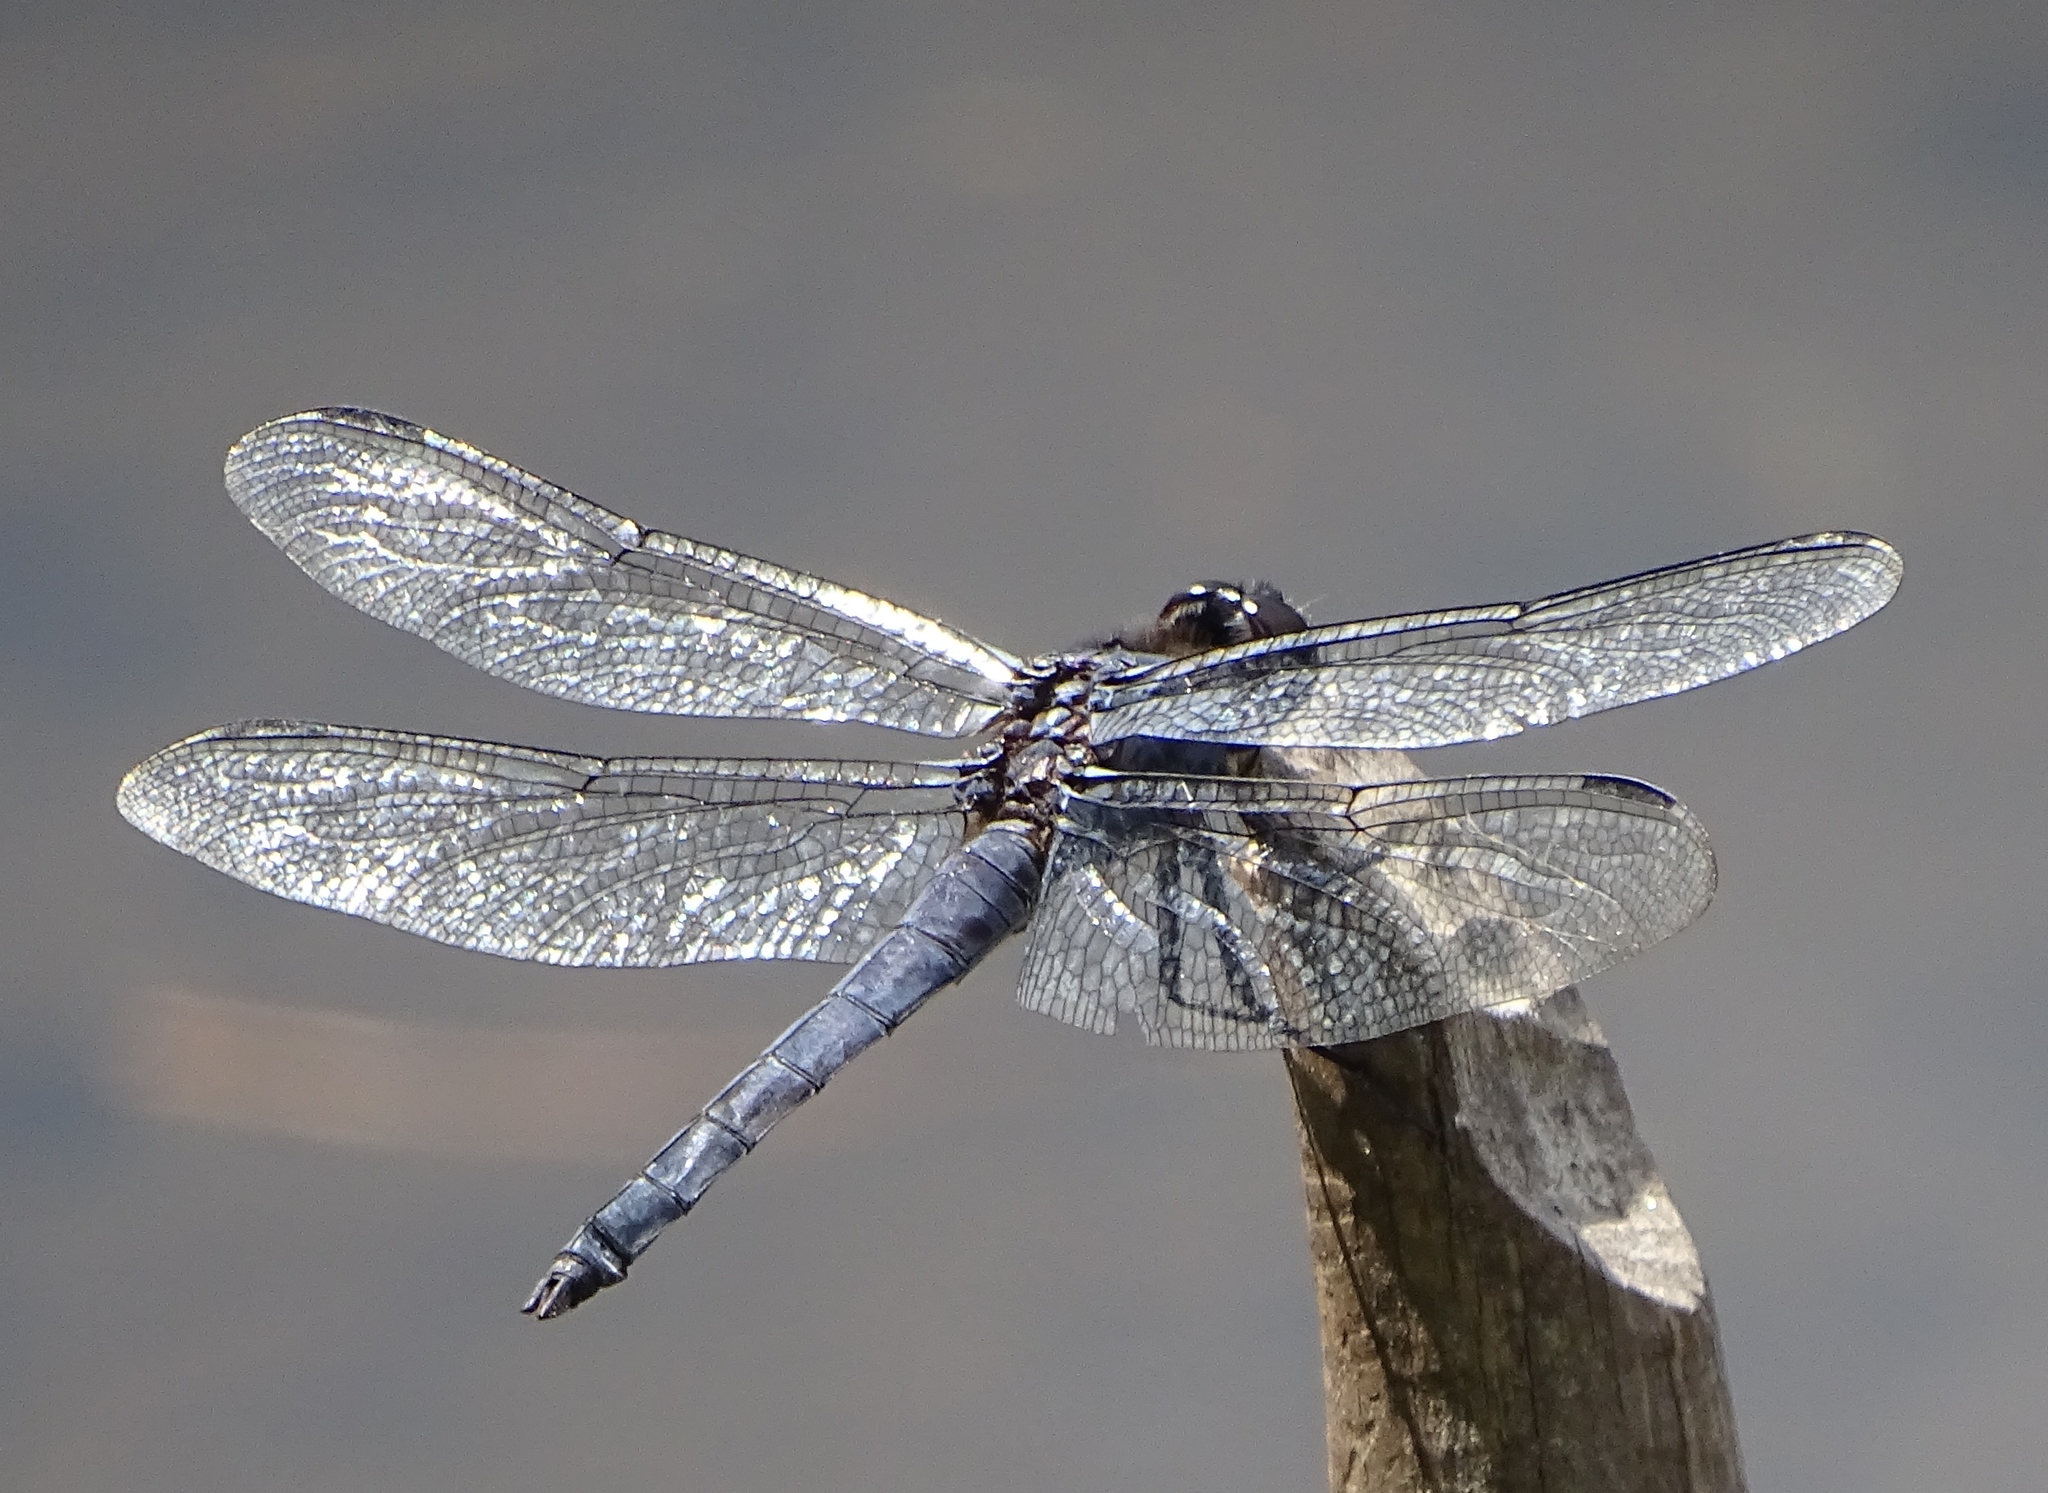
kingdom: Animalia
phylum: Arthropoda
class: Insecta
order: Odonata
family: Libellulidae
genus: Libellula
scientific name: Libellula incesta
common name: Slaty skimmer
